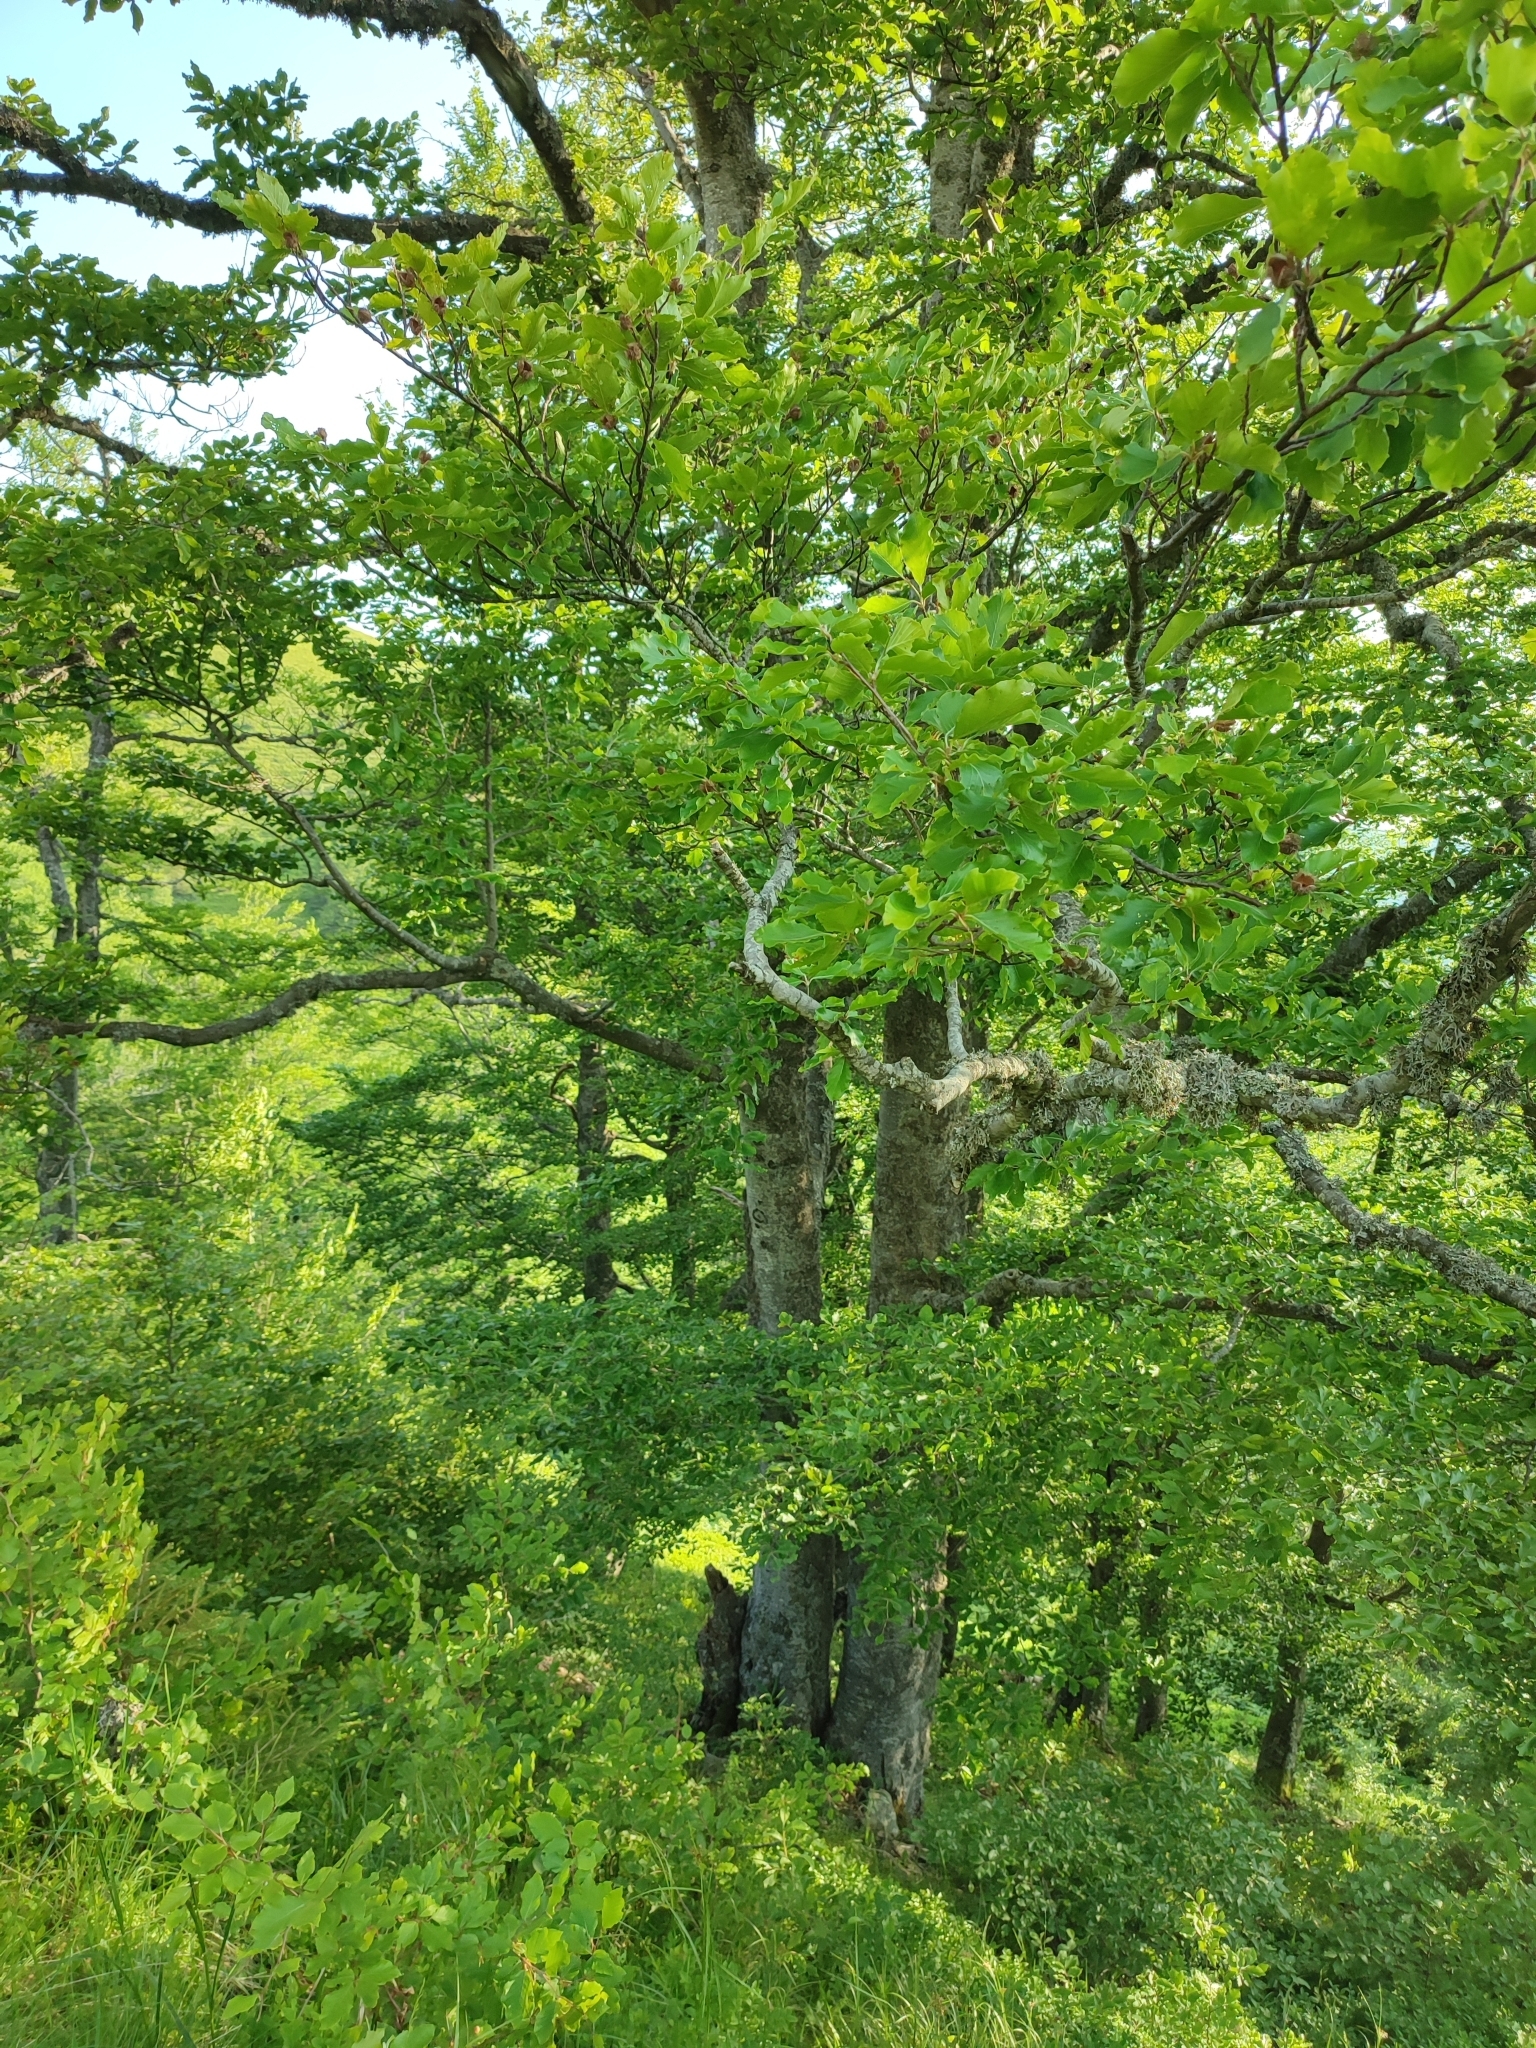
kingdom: Plantae
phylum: Tracheophyta
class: Magnoliopsida
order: Fagales
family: Fagaceae
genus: Fagus
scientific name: Fagus sylvatica
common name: Beech
